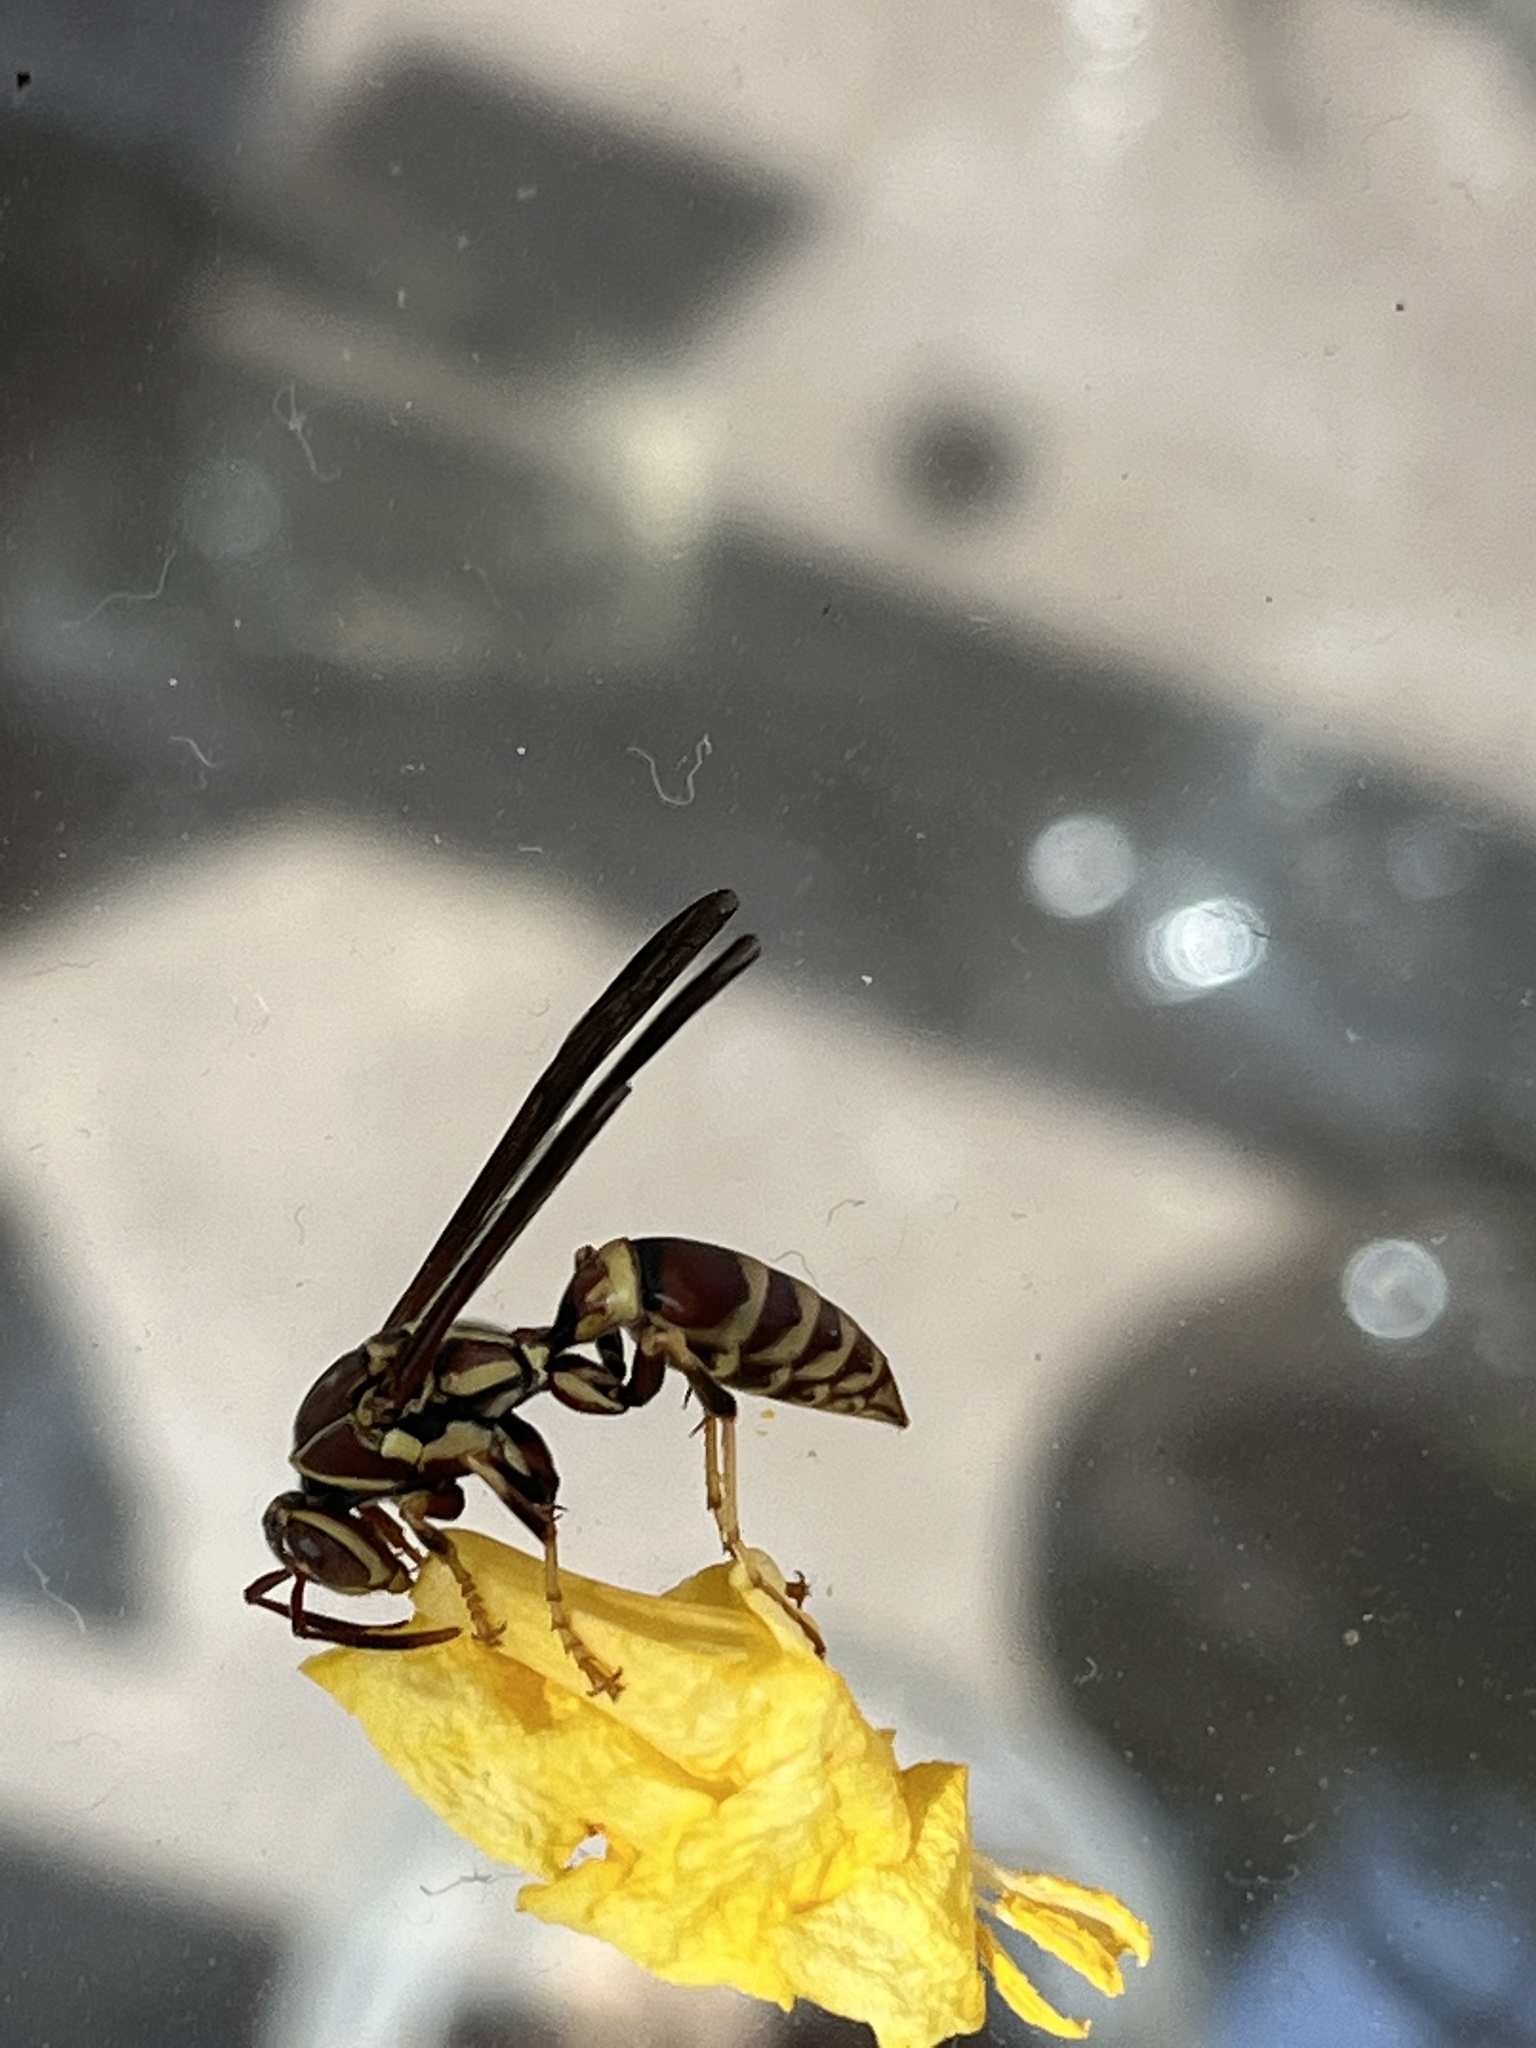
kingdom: Animalia
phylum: Arthropoda
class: Insecta
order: Hymenoptera
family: Eumenidae
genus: Polistes
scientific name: Polistes exclamans
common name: Paper wasp
